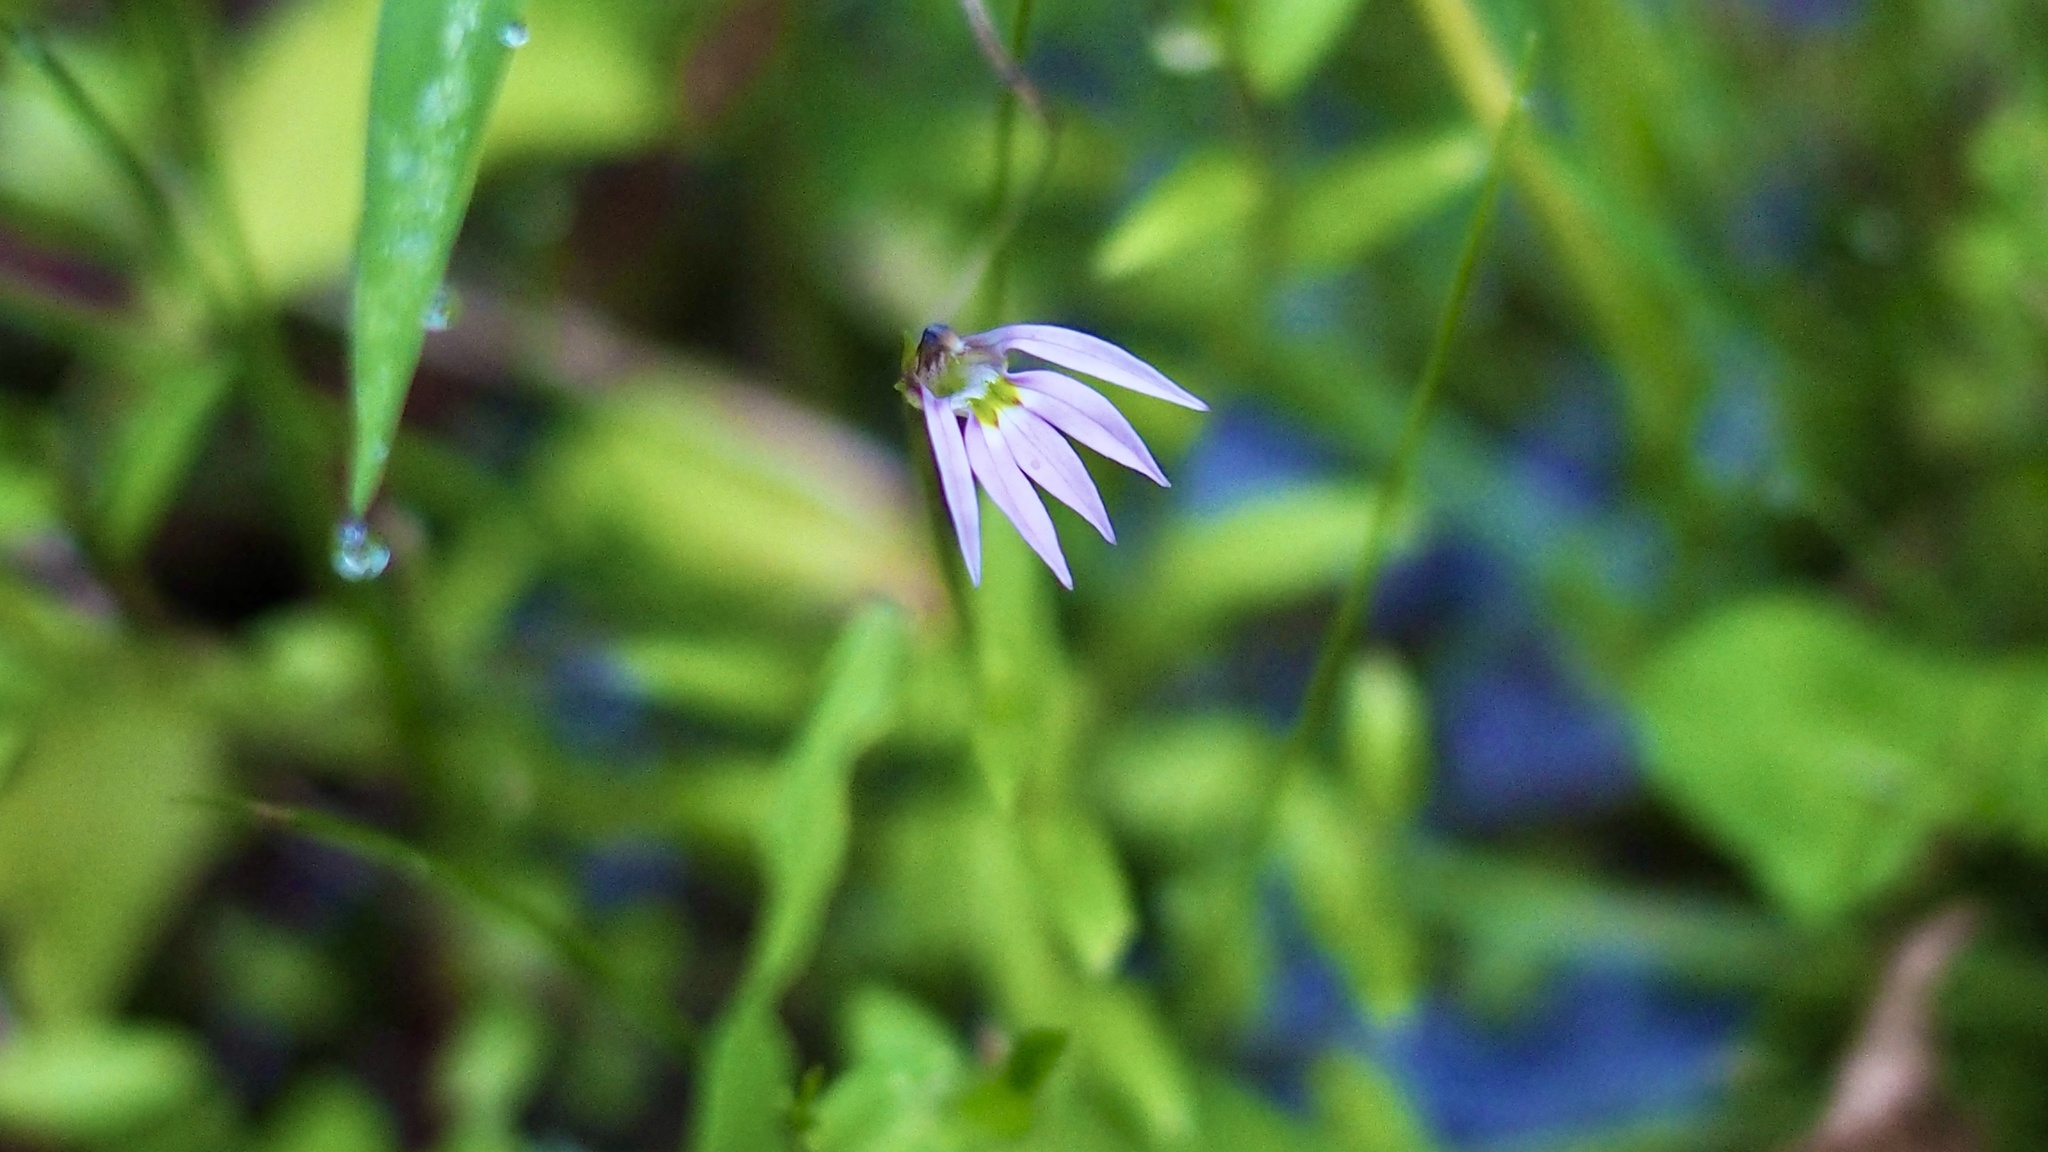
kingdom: Plantae
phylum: Tracheophyta
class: Magnoliopsida
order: Asterales
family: Campanulaceae
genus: Lobelia
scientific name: Lobelia chinensis
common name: Chinese lobelia
